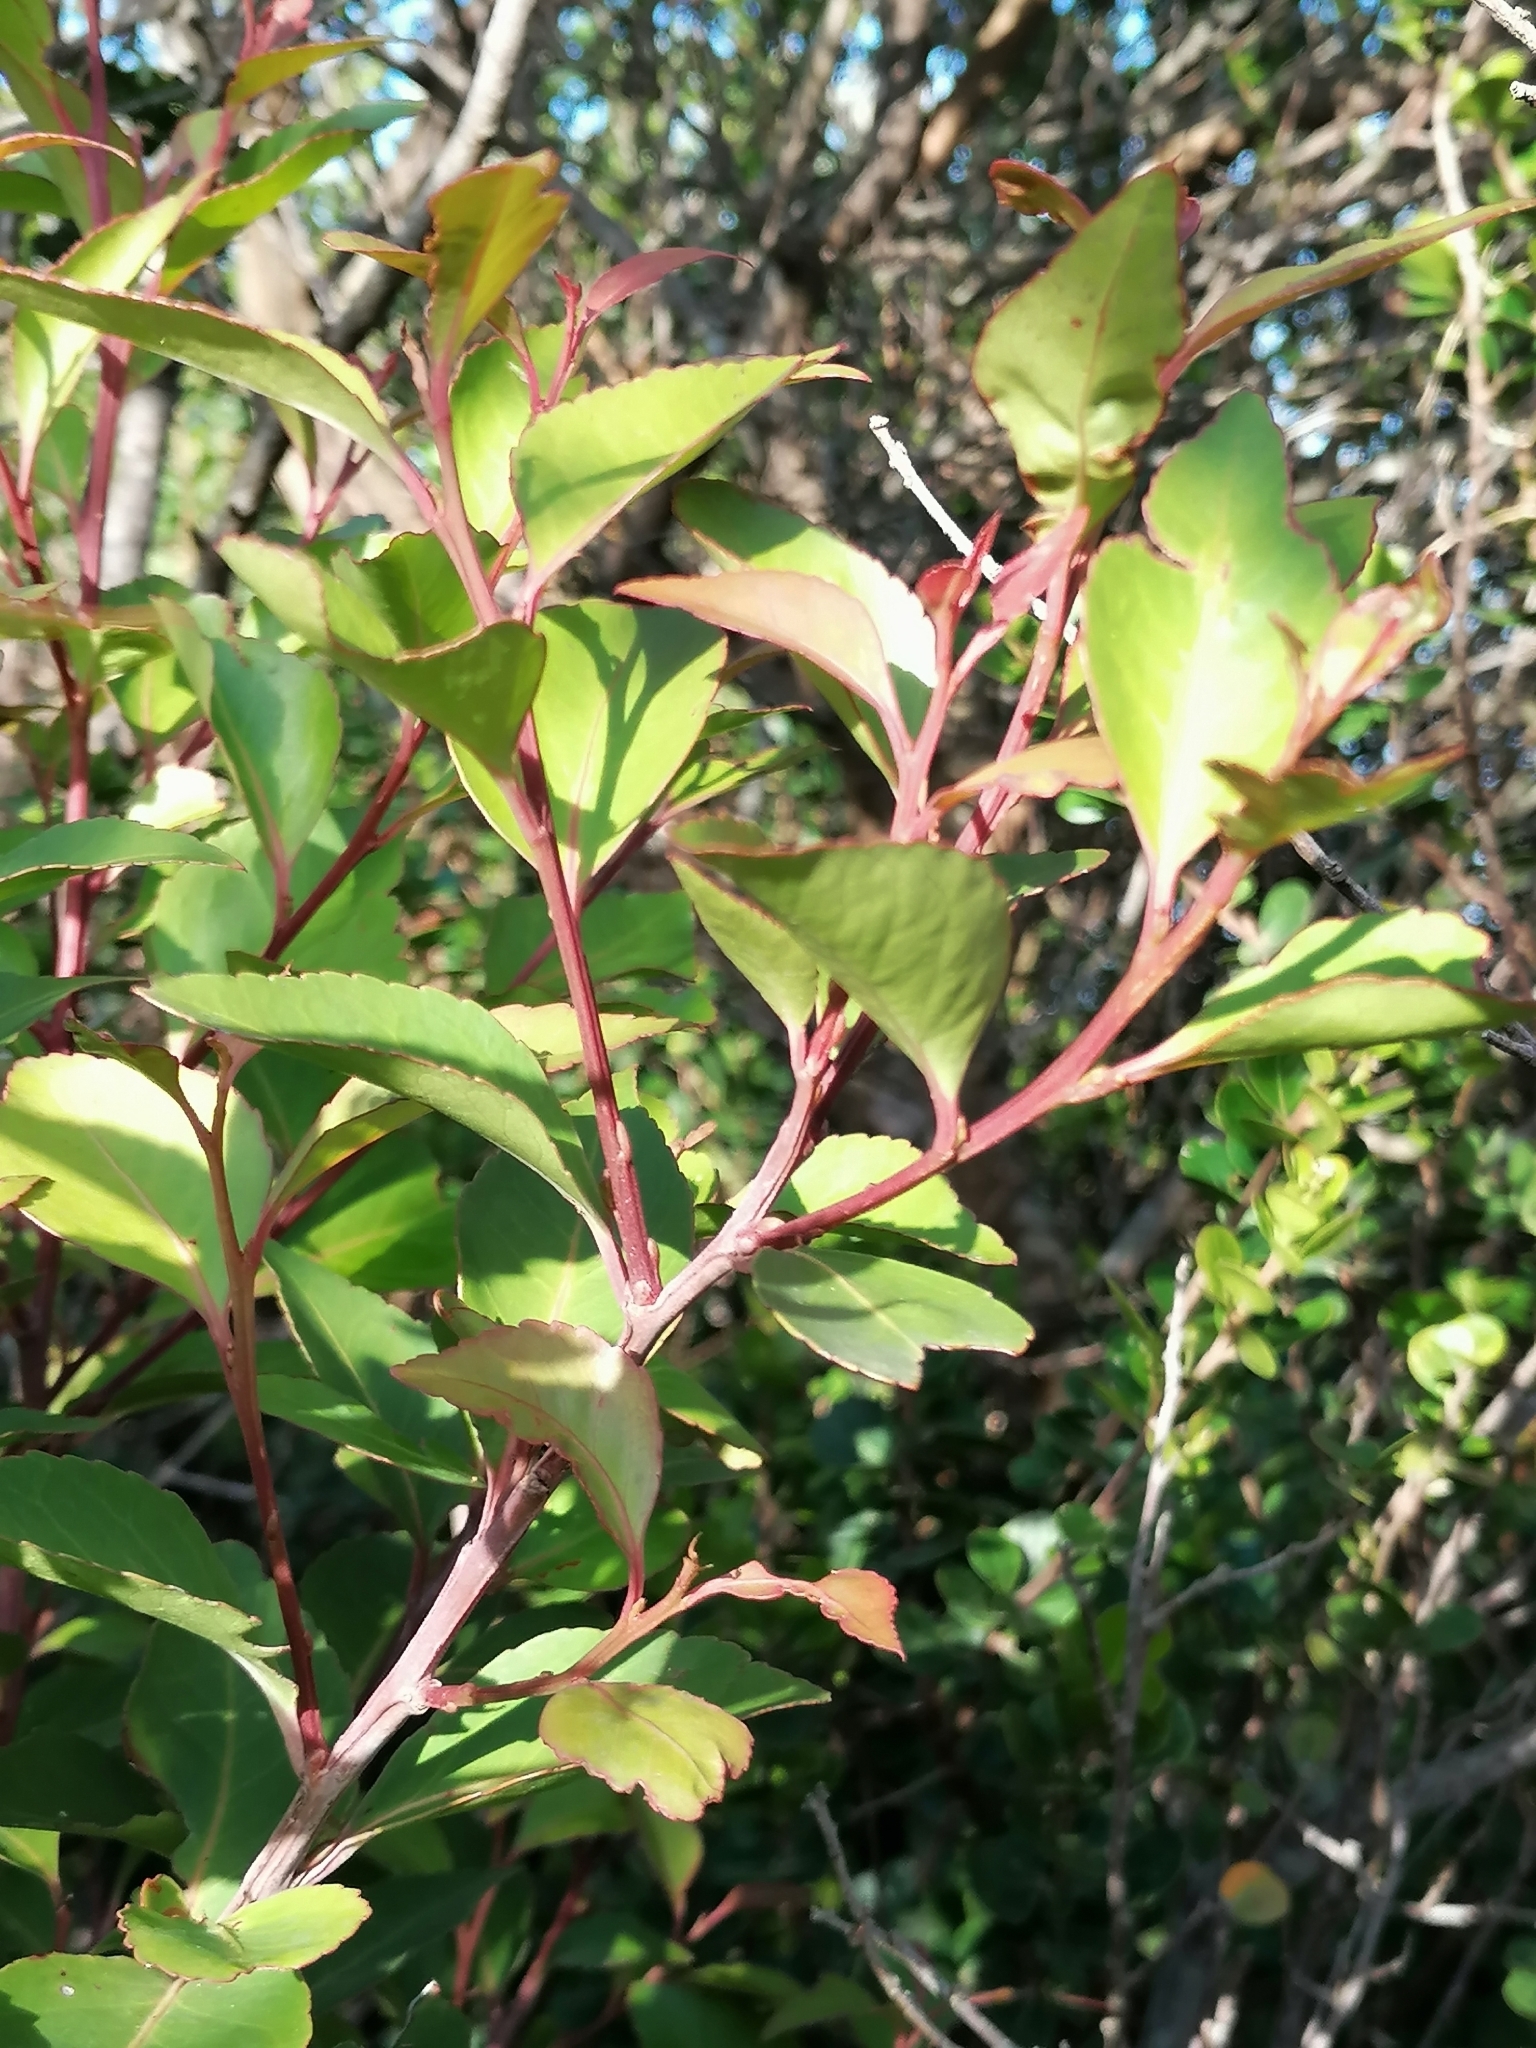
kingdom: Plantae
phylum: Tracheophyta
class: Magnoliopsida
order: Celastrales
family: Celastraceae
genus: Gymnosporia
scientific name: Gymnosporia acuminata
